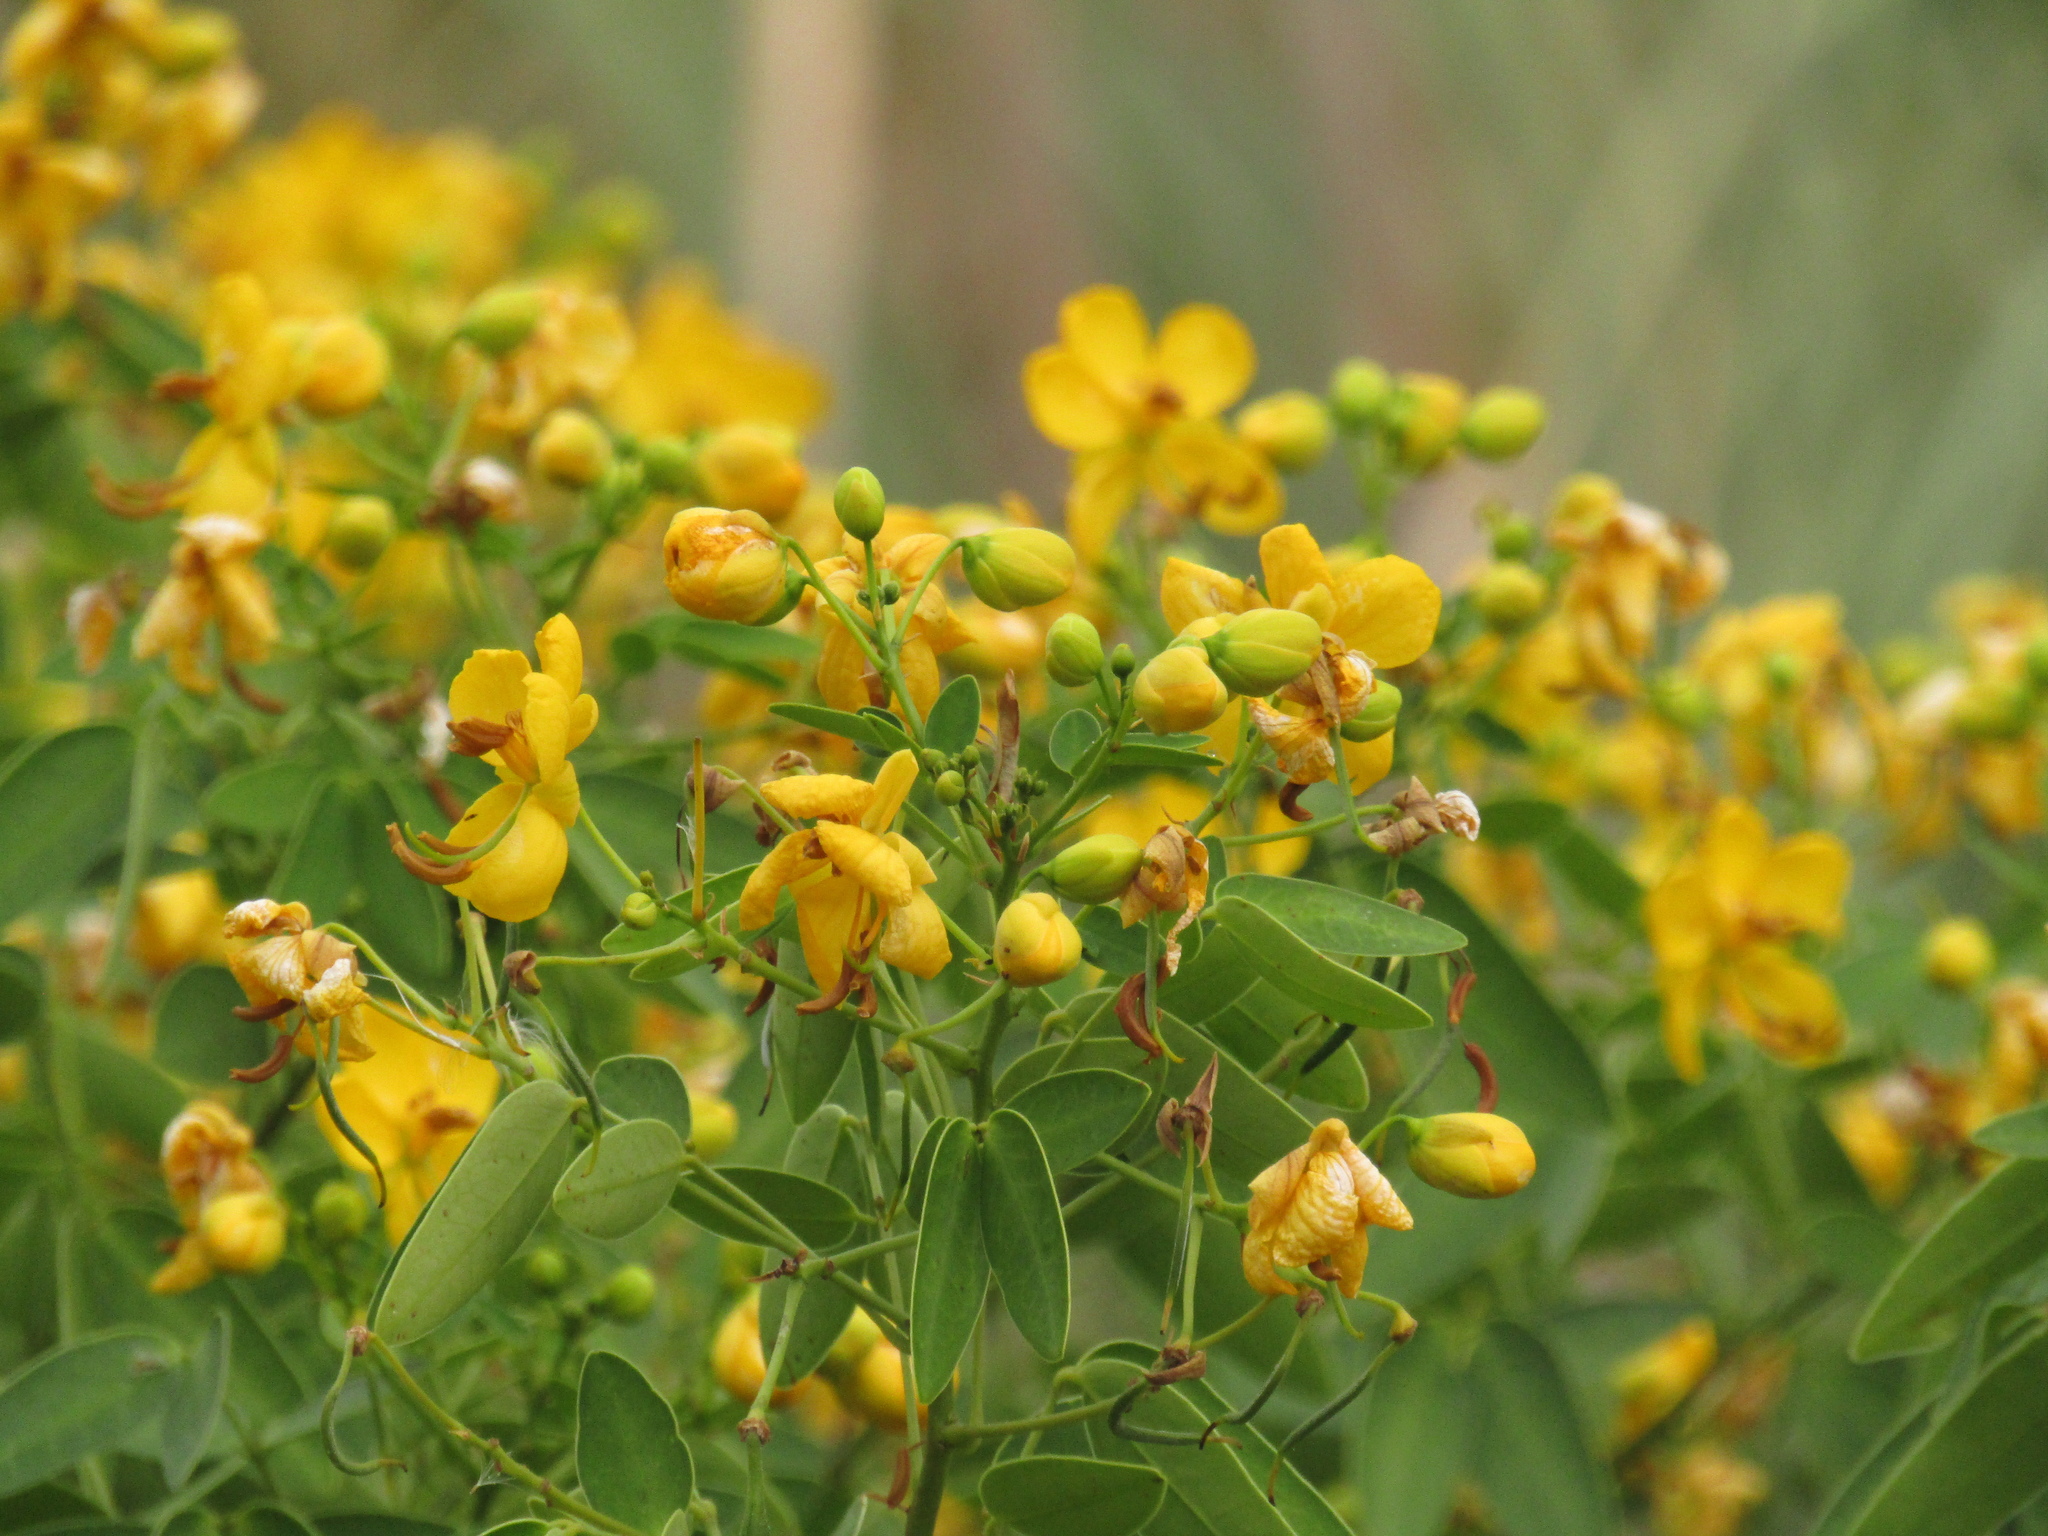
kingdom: Plantae
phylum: Tracheophyta
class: Magnoliopsida
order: Fabales
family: Fabaceae
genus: Senna
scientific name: Senna corymbosa
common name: Argentine senna
